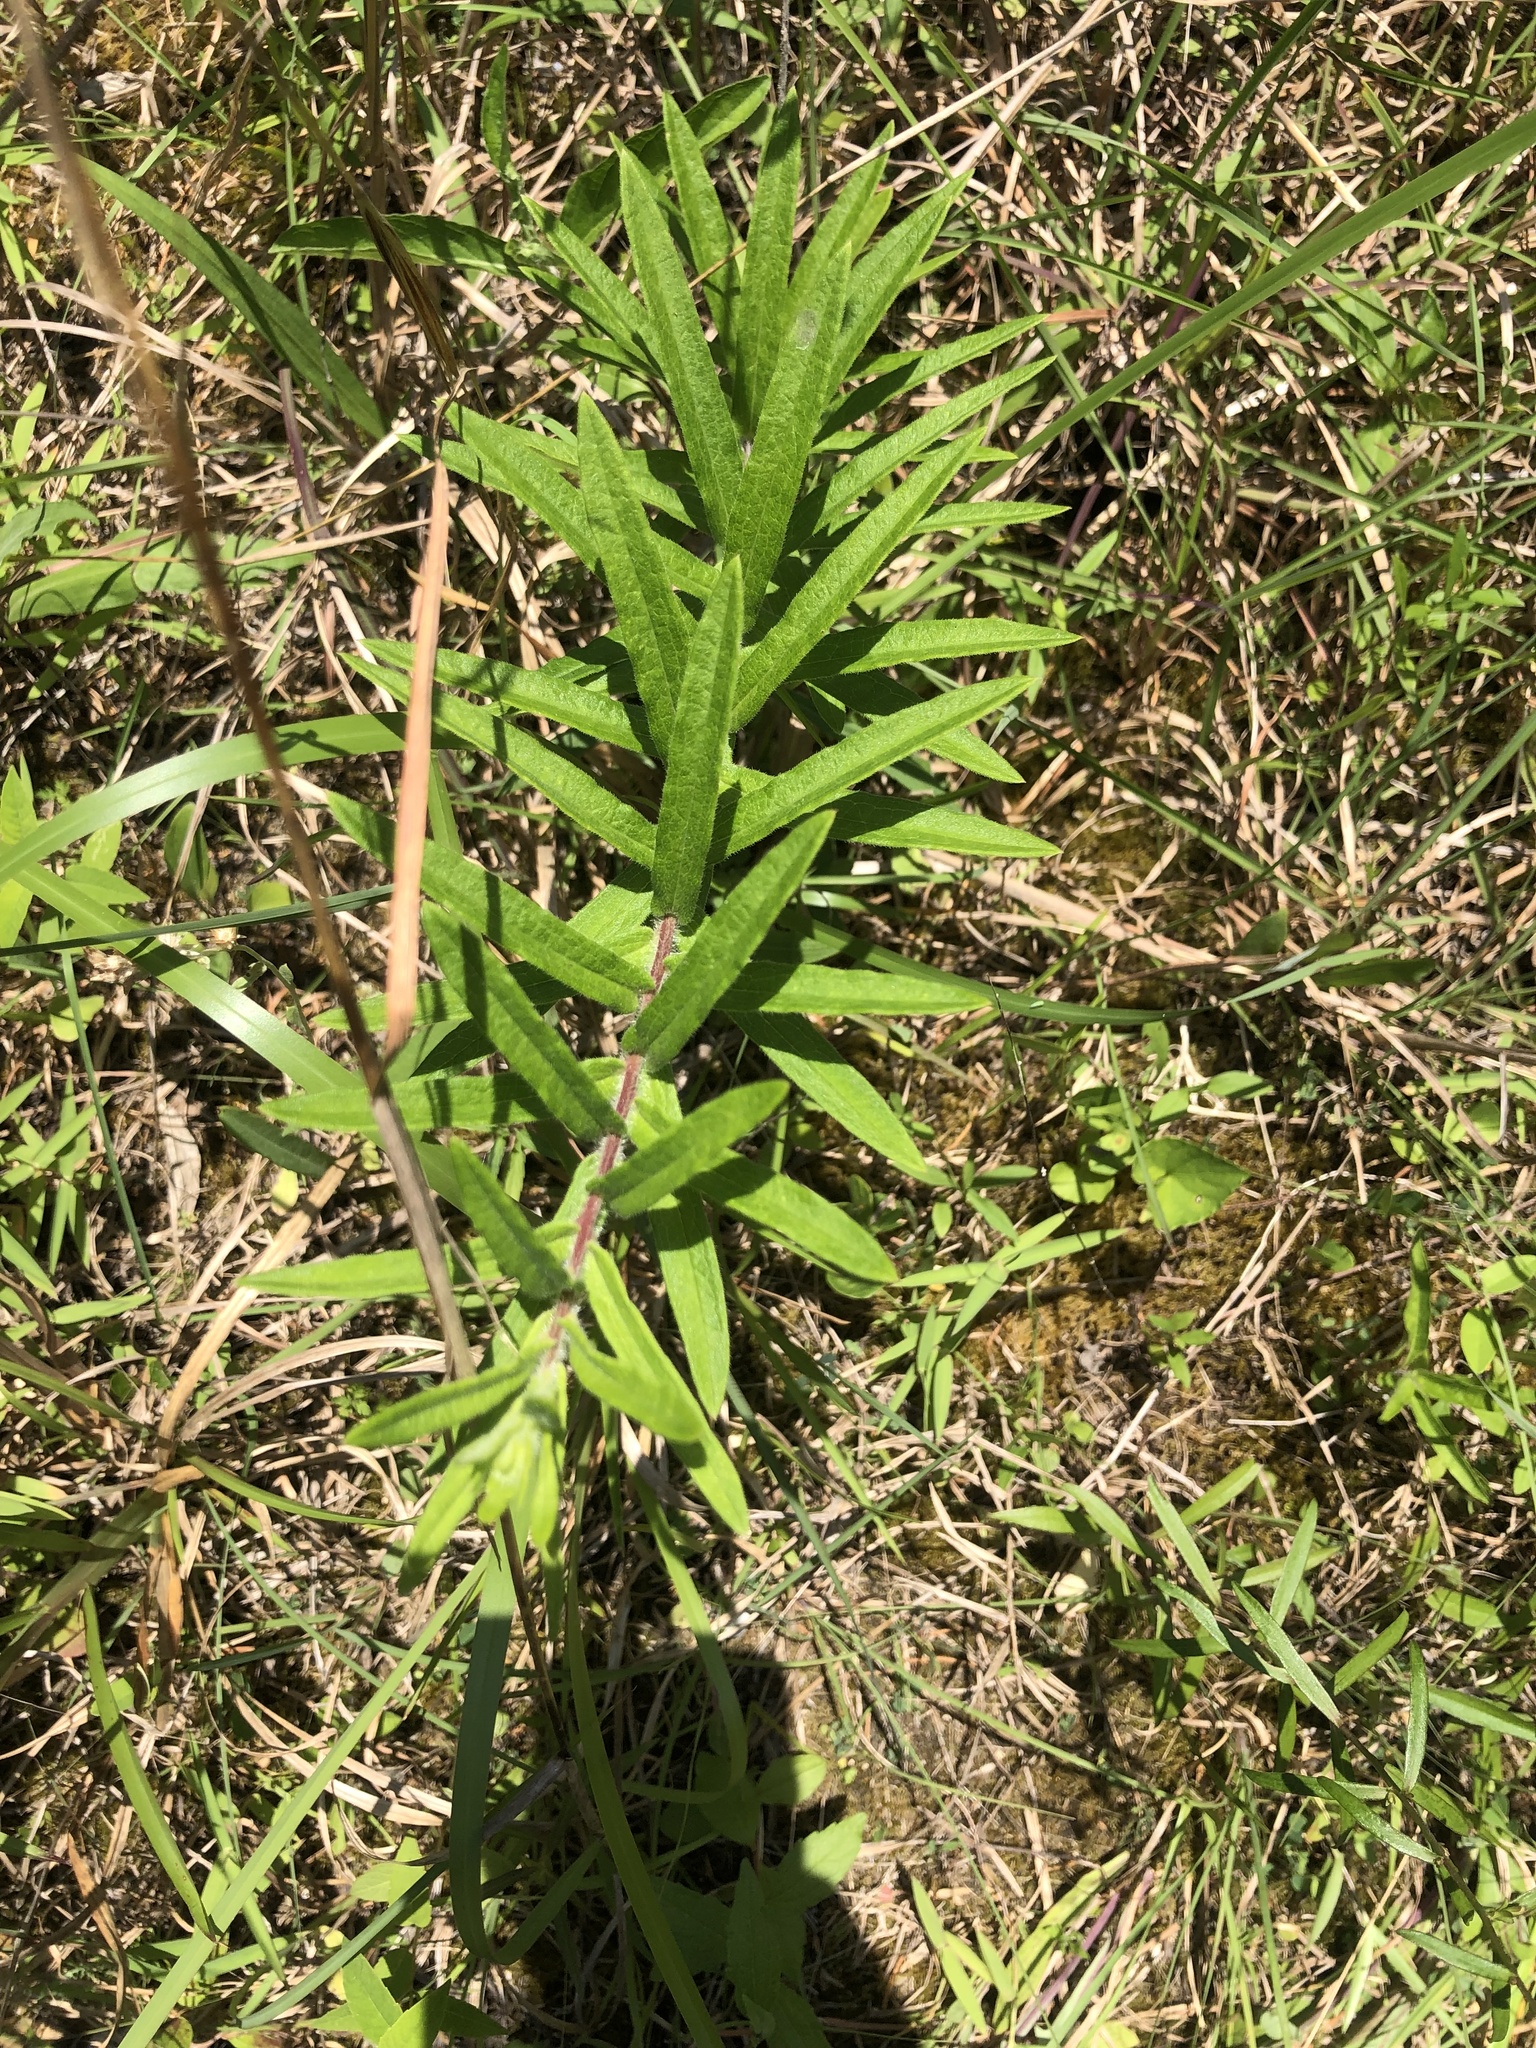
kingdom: Plantae
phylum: Tracheophyta
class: Magnoliopsida
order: Gentianales
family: Apocynaceae
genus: Asclepias
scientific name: Asclepias tuberosa
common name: Butterfly milkweed
